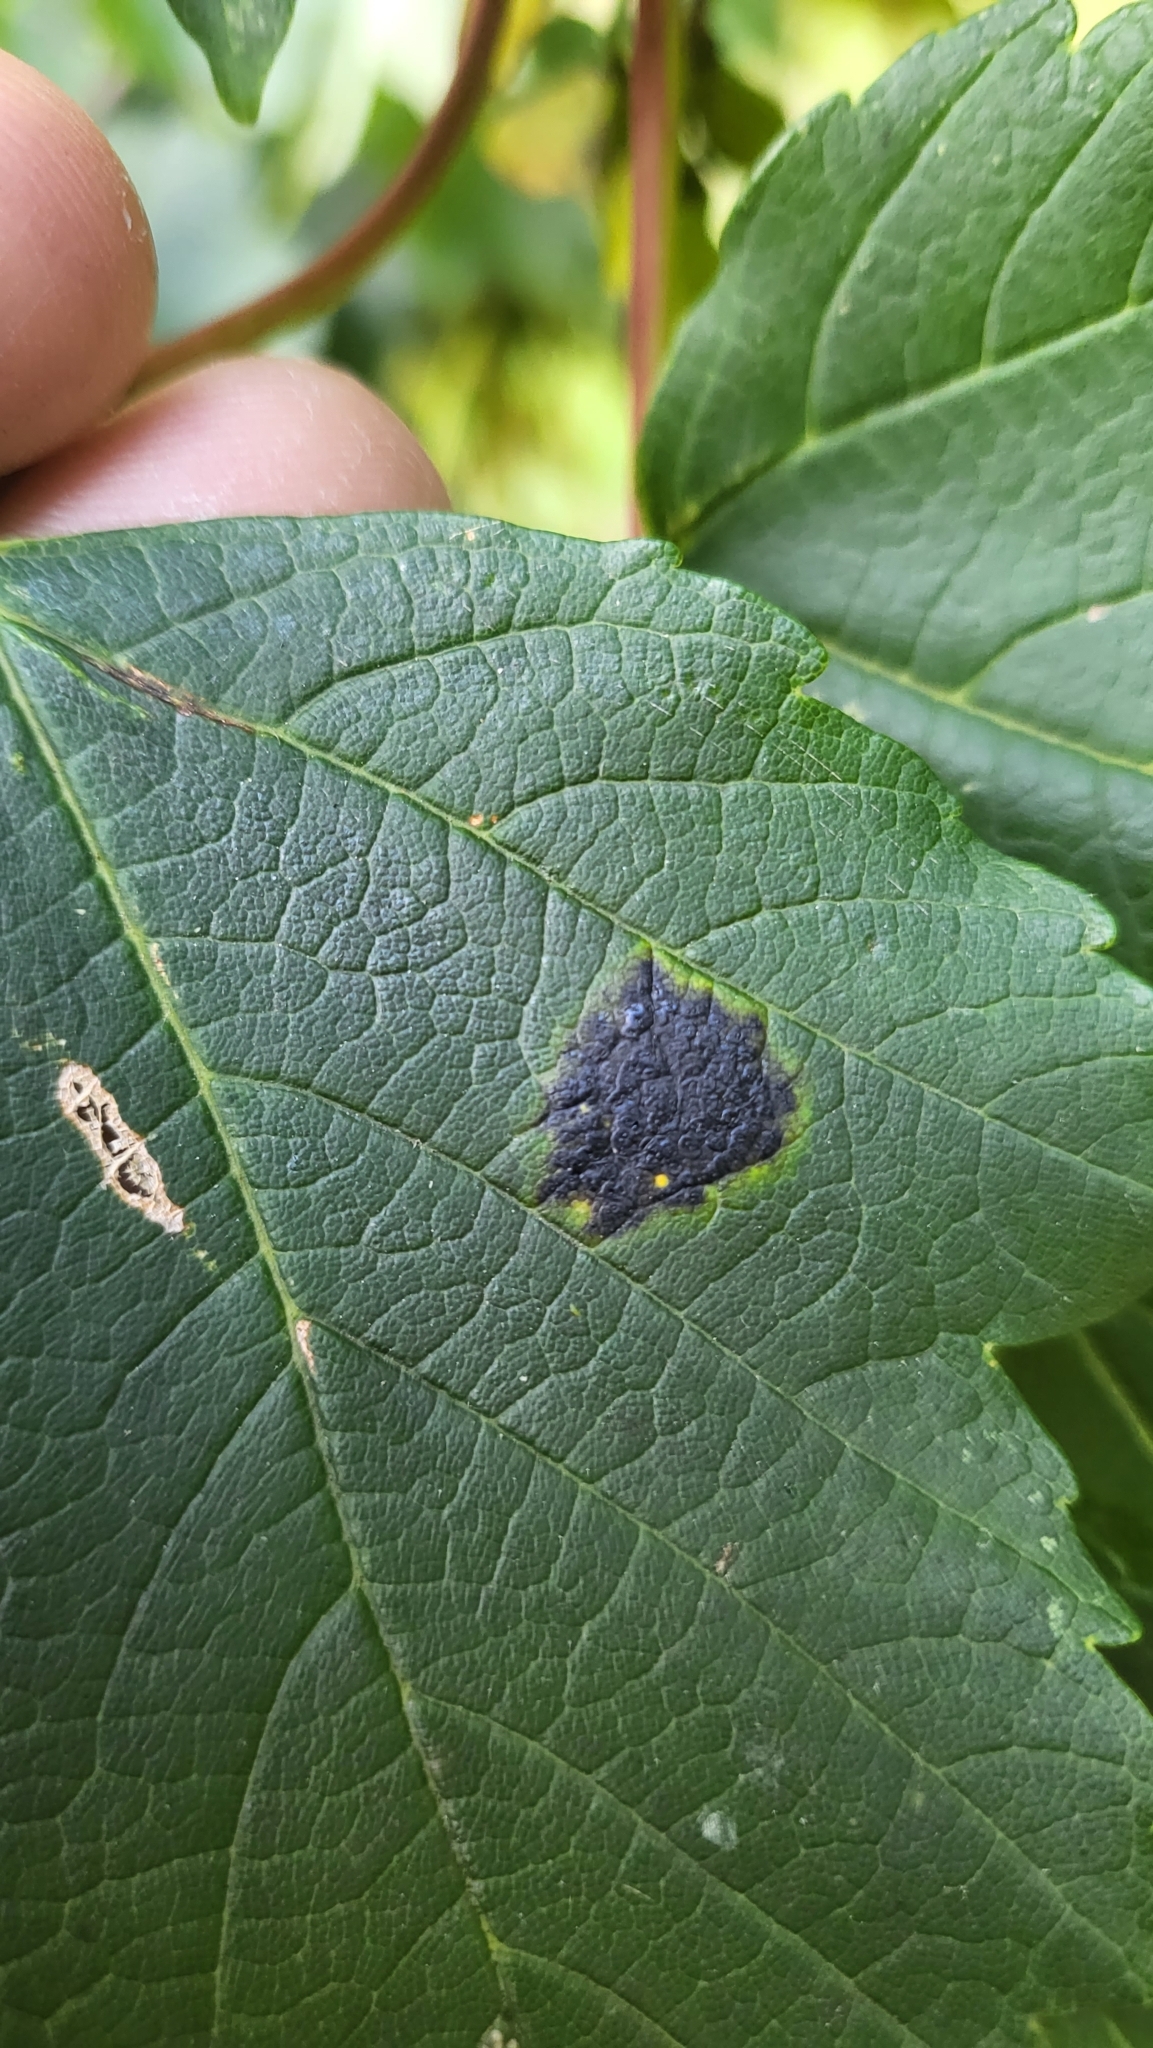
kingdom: Fungi
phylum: Ascomycota
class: Leotiomycetes
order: Rhytismatales
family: Rhytismataceae
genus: Rhytisma
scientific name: Rhytisma acerinum
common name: European tar spot
